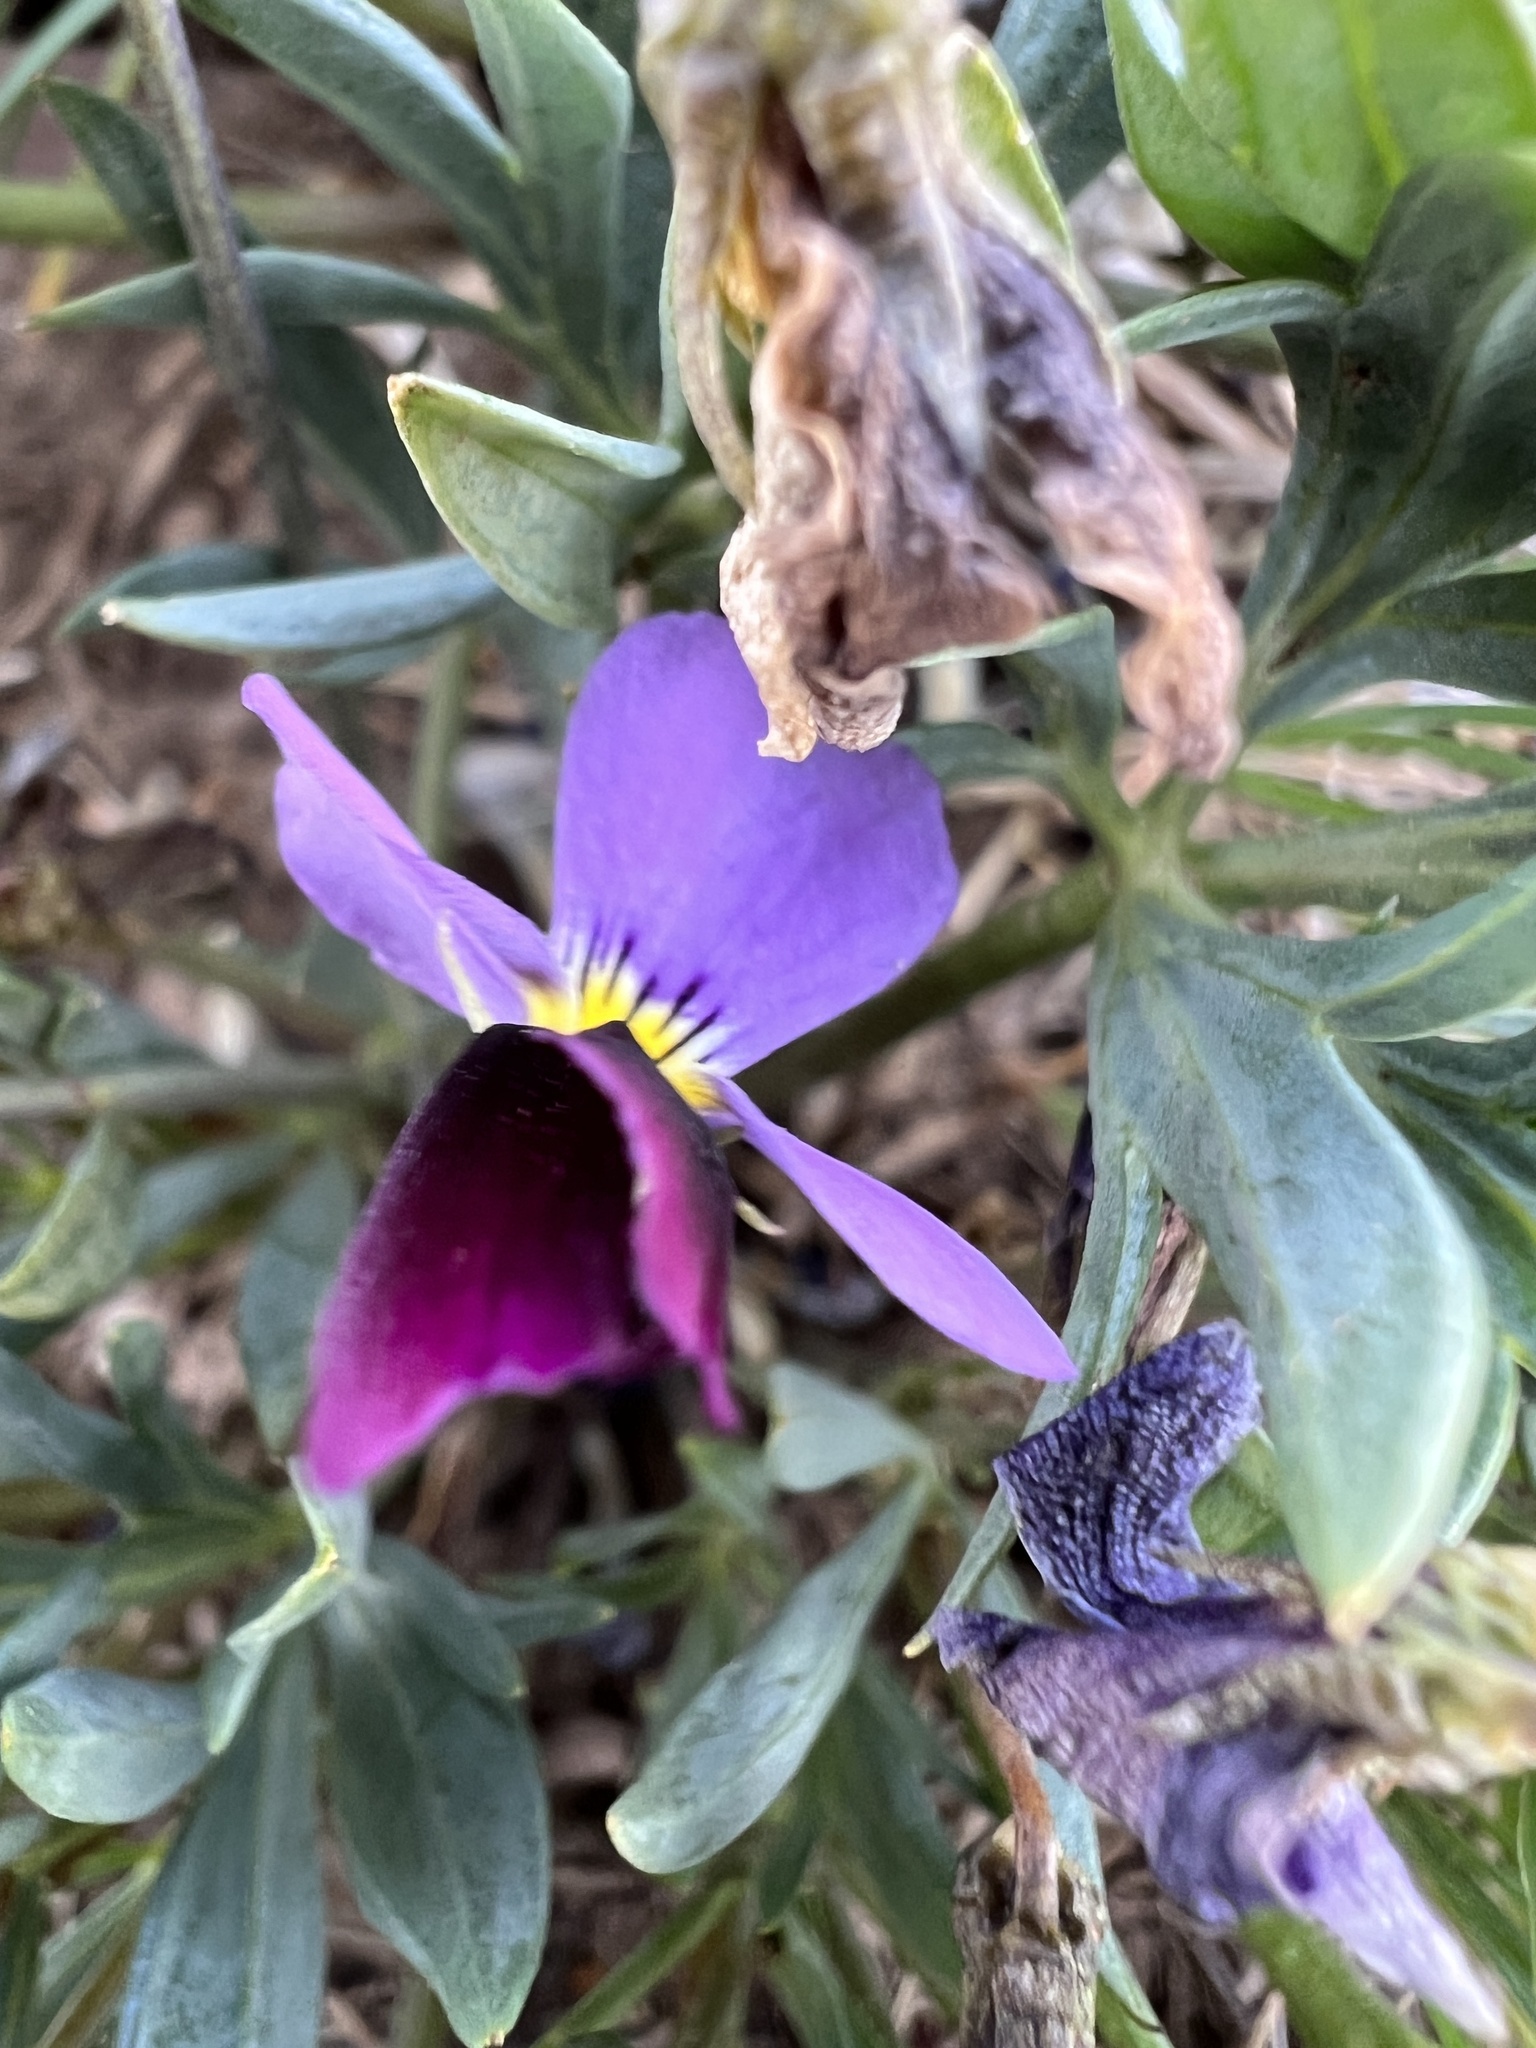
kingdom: Plantae
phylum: Tracheophyta
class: Magnoliopsida
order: Malpighiales
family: Violaceae
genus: Viola
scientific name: Viola trinervata
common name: Sagebrush violet
